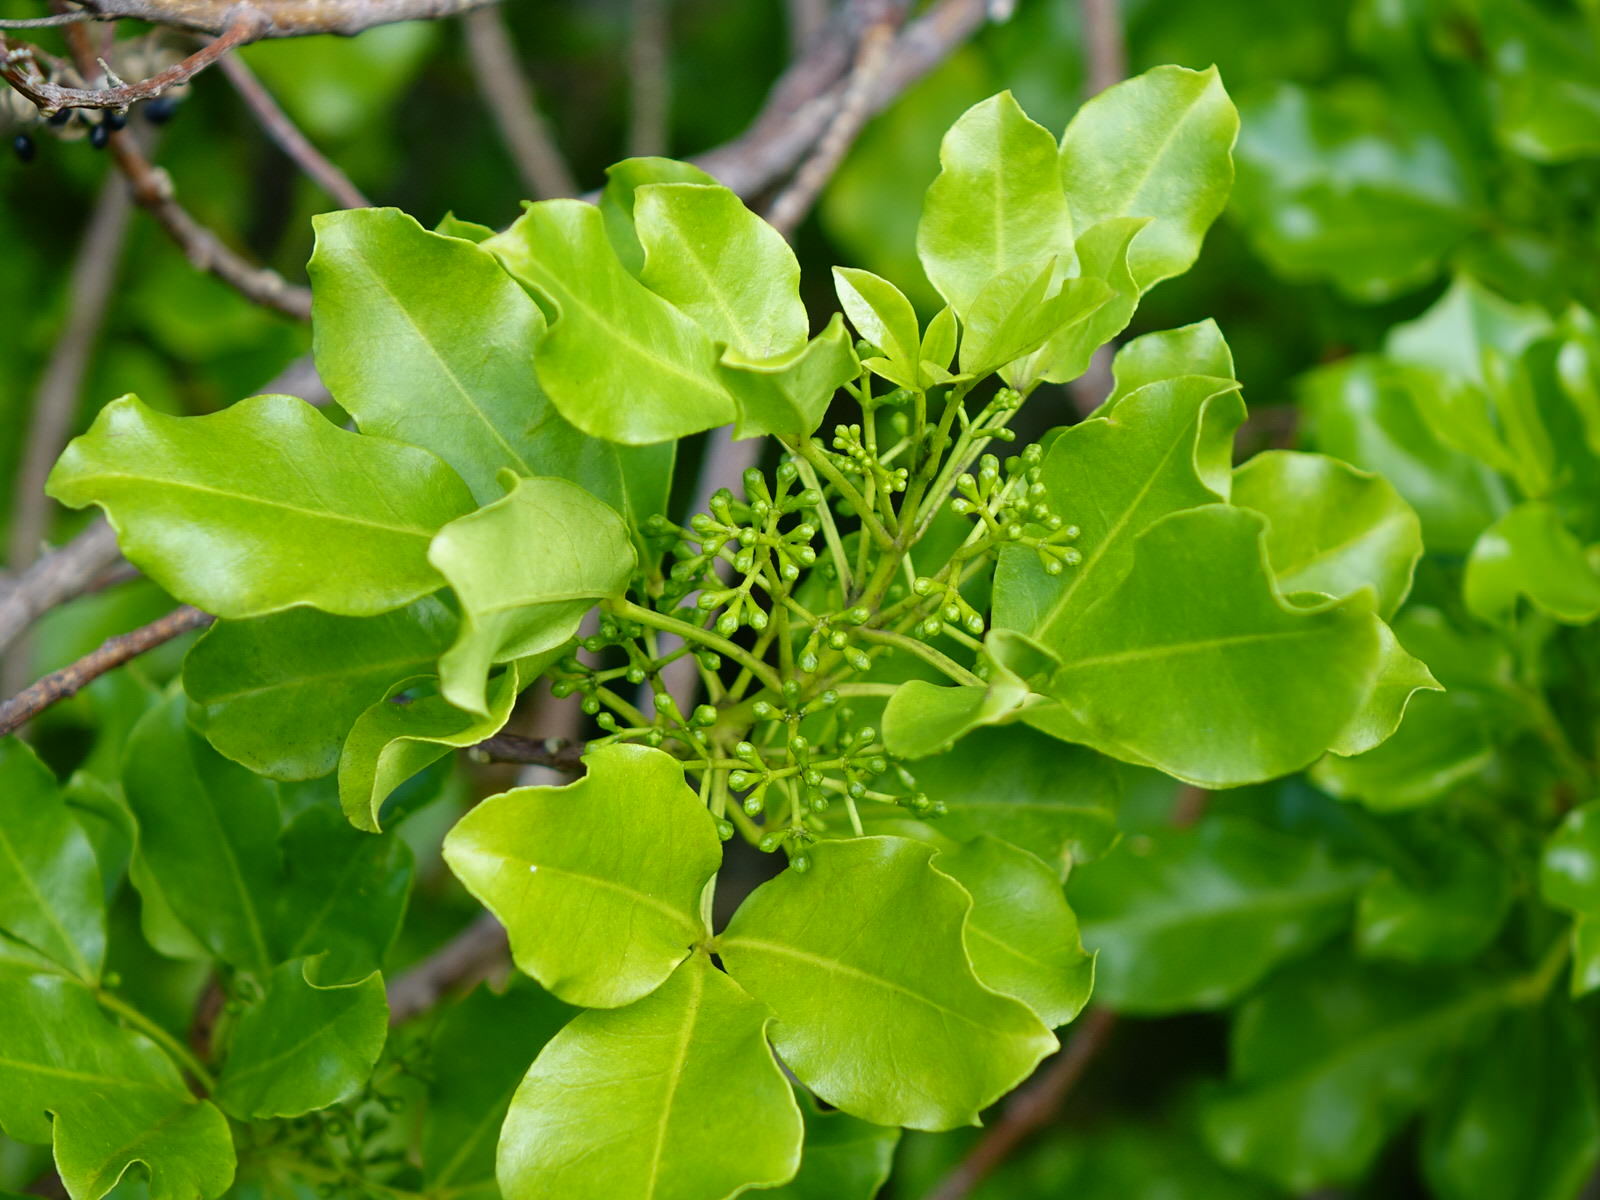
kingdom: Plantae
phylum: Tracheophyta
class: Magnoliopsida
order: Sapindales
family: Rutaceae
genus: Melicope
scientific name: Melicope ternata
